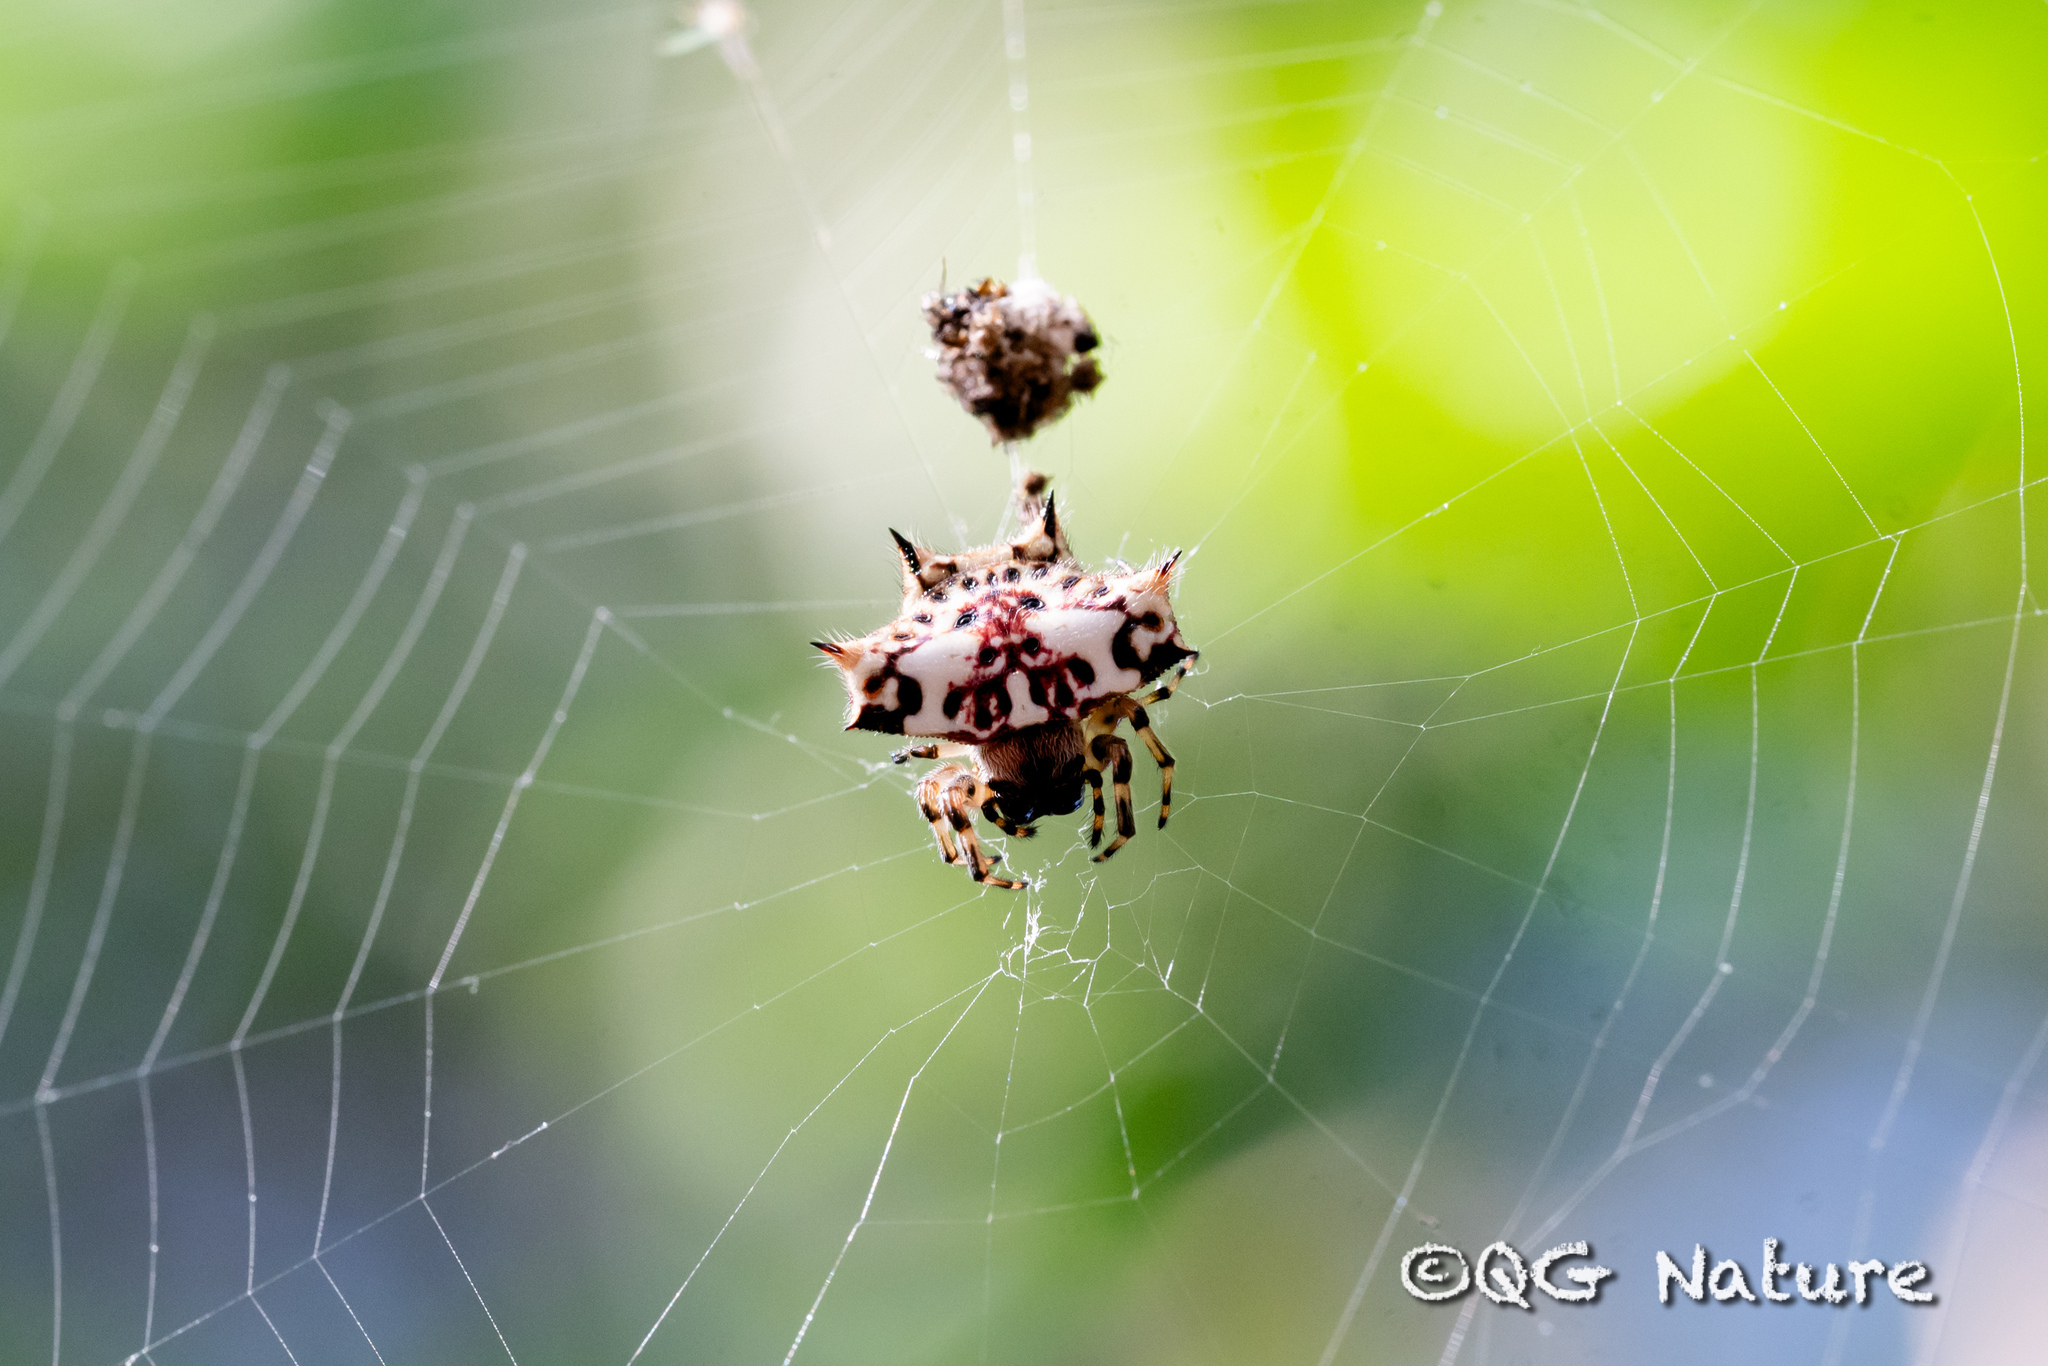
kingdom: Animalia
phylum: Arthropoda
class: Arachnida
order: Araneae
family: Araneidae
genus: Gasteracantha
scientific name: Gasteracantha kuhli
